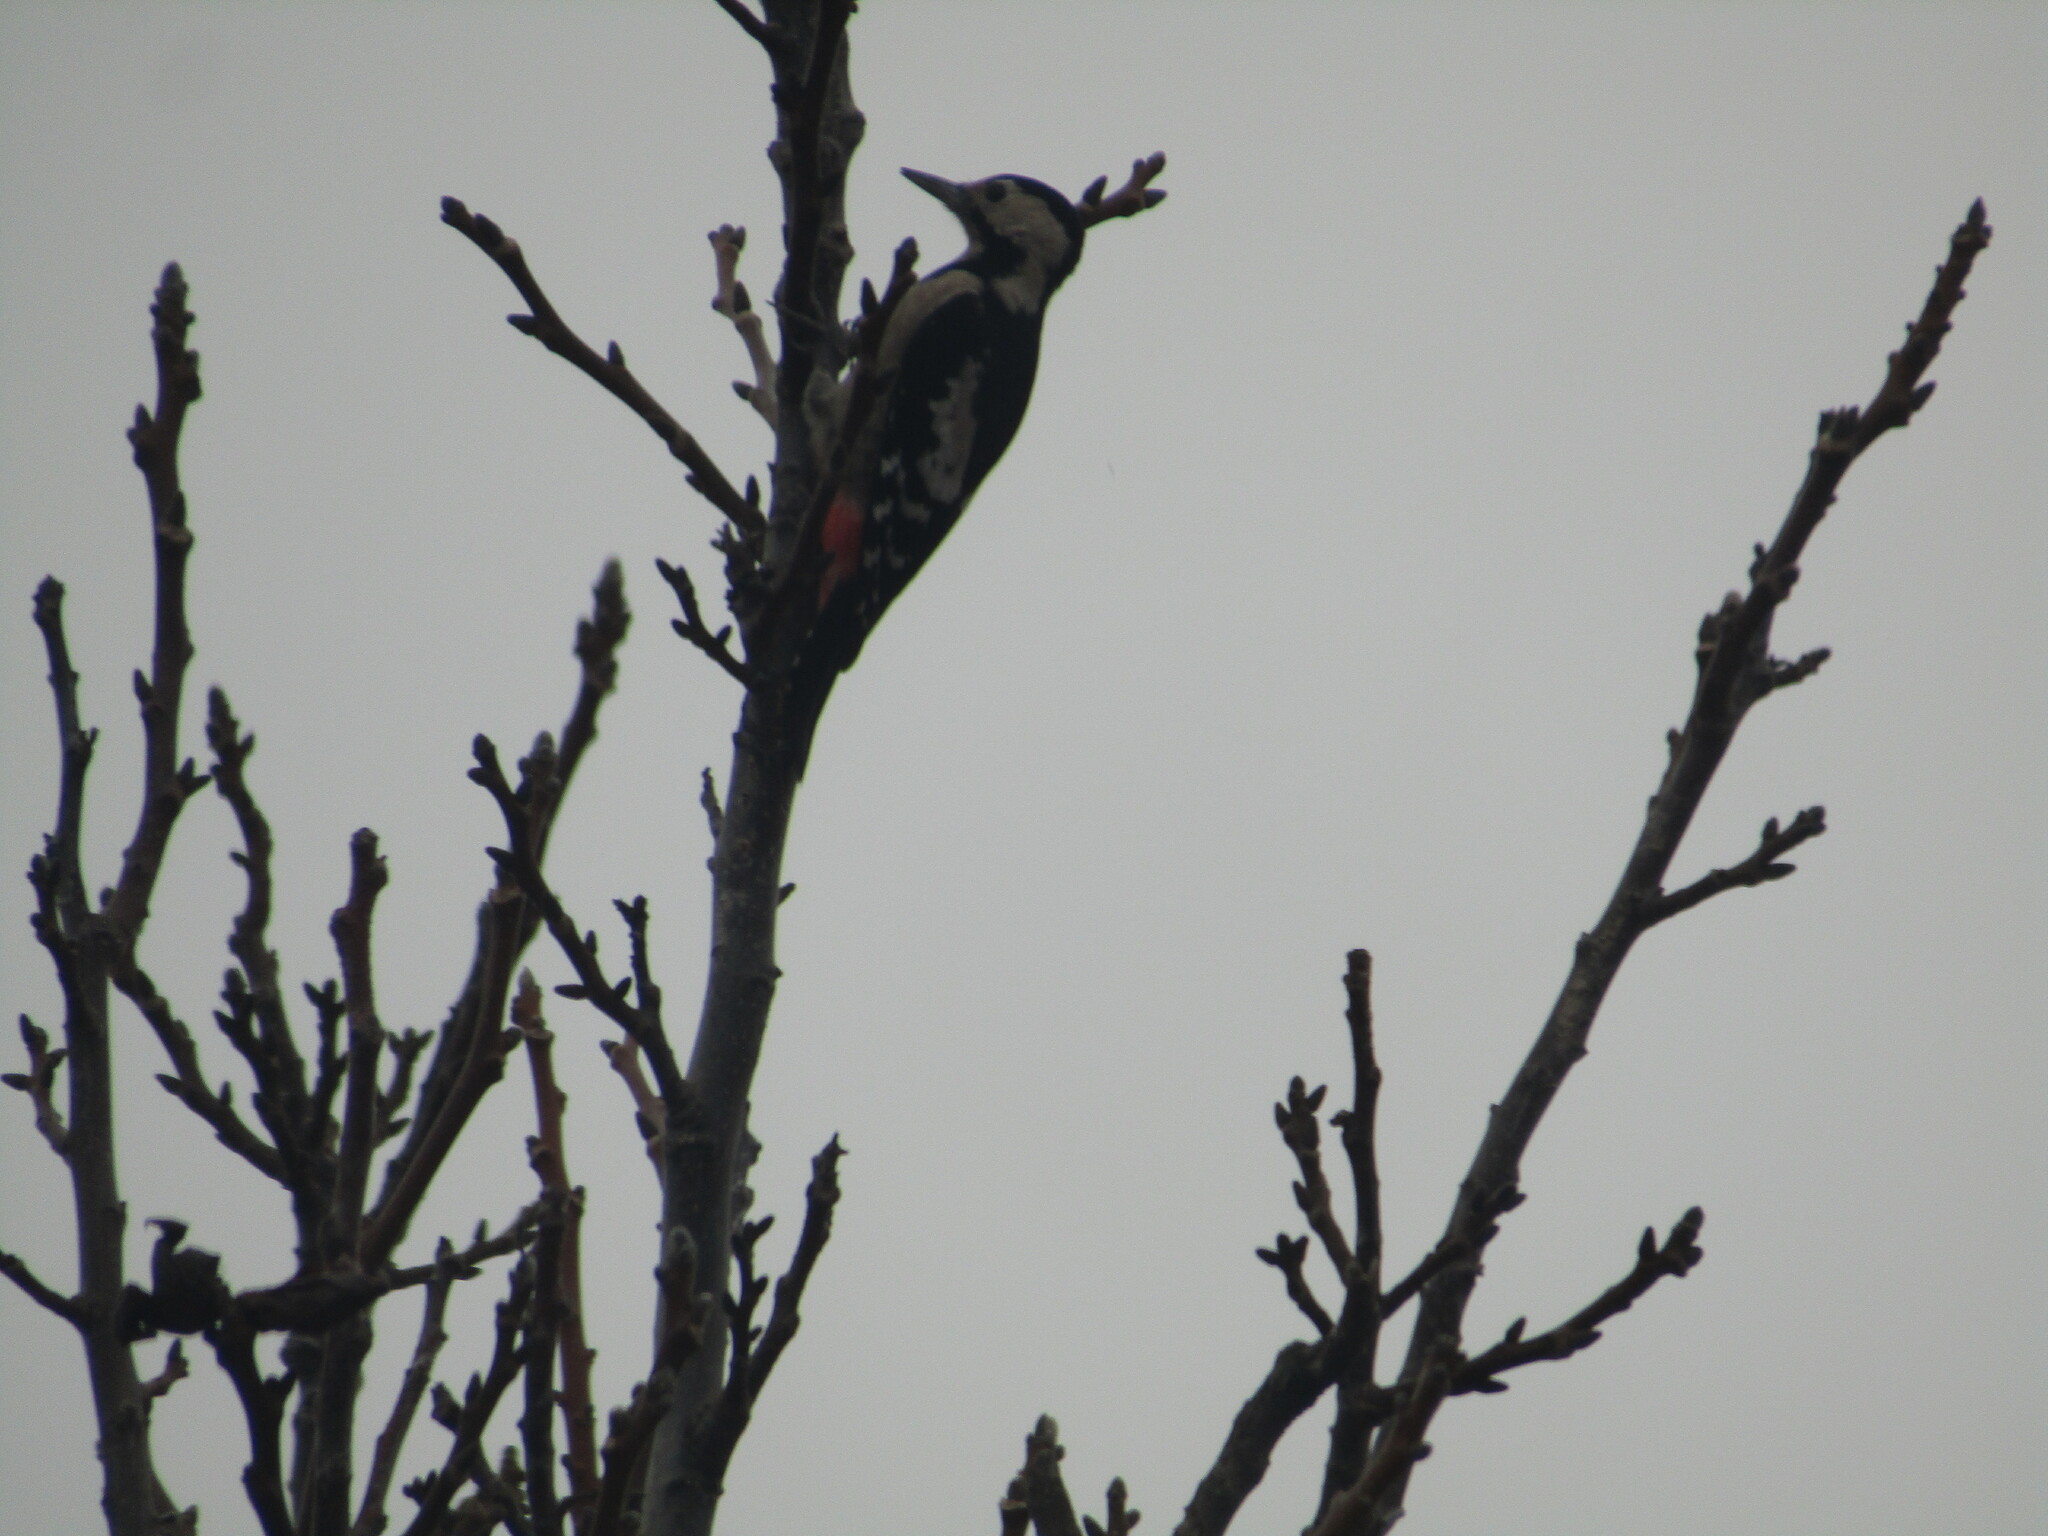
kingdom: Animalia
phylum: Chordata
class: Aves
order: Piciformes
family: Picidae
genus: Dendrocopos
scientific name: Dendrocopos syriacus
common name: Syrian woodpecker
